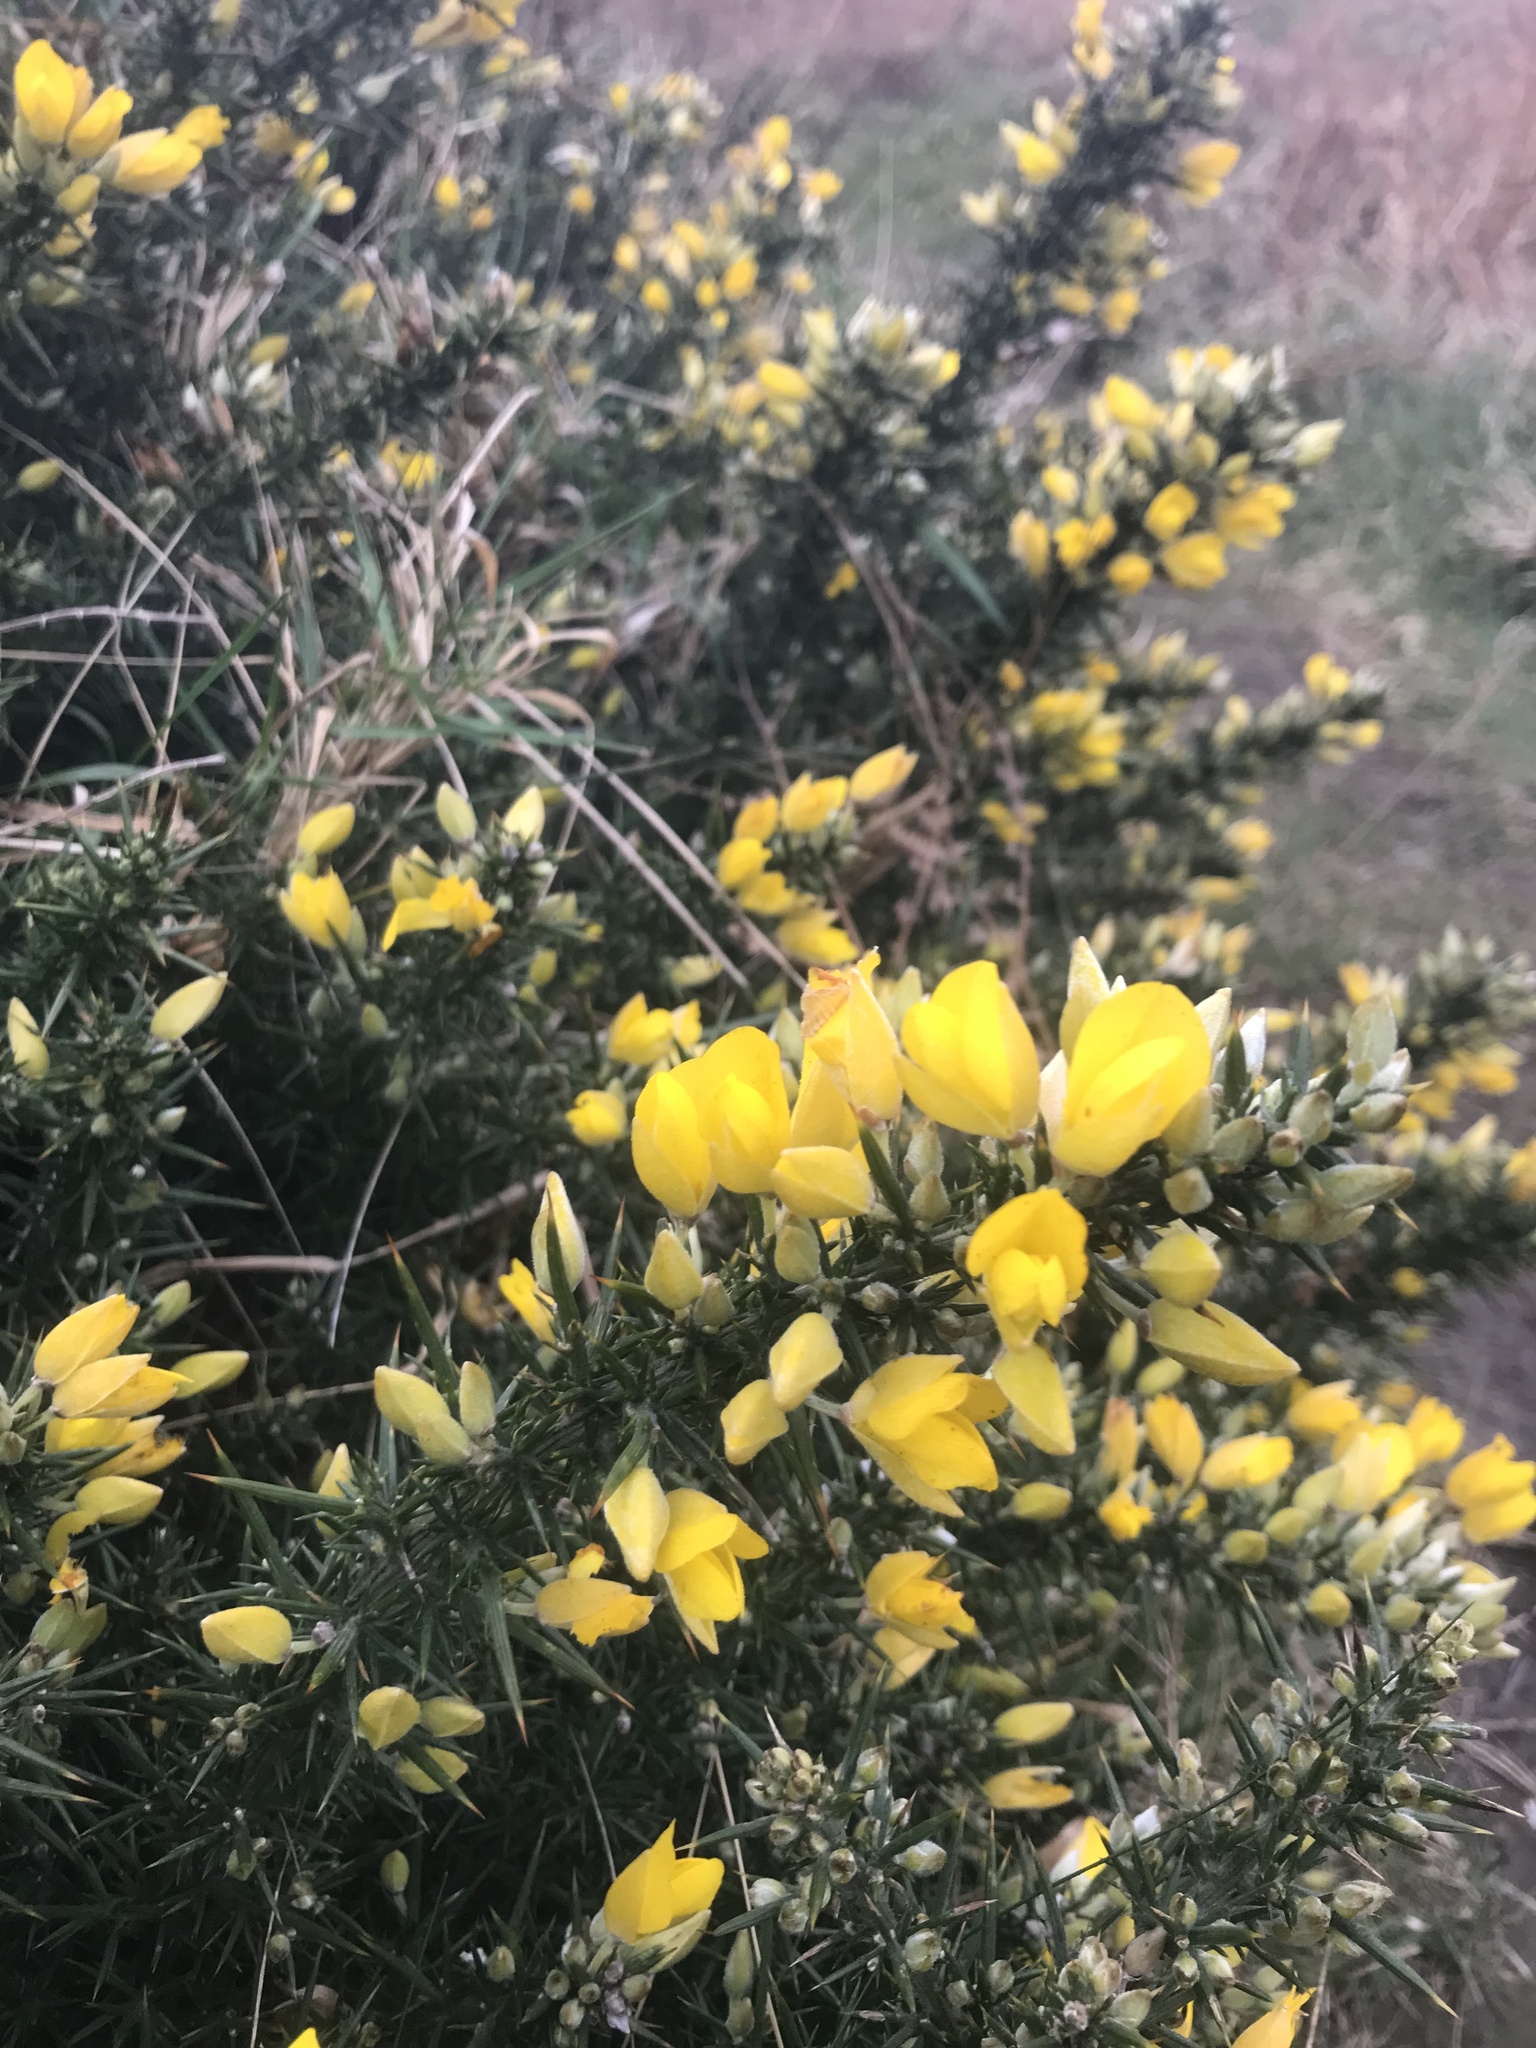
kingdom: Plantae
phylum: Tracheophyta
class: Magnoliopsida
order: Fabales
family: Fabaceae
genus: Ulex
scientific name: Ulex europaeus
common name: Common gorse
